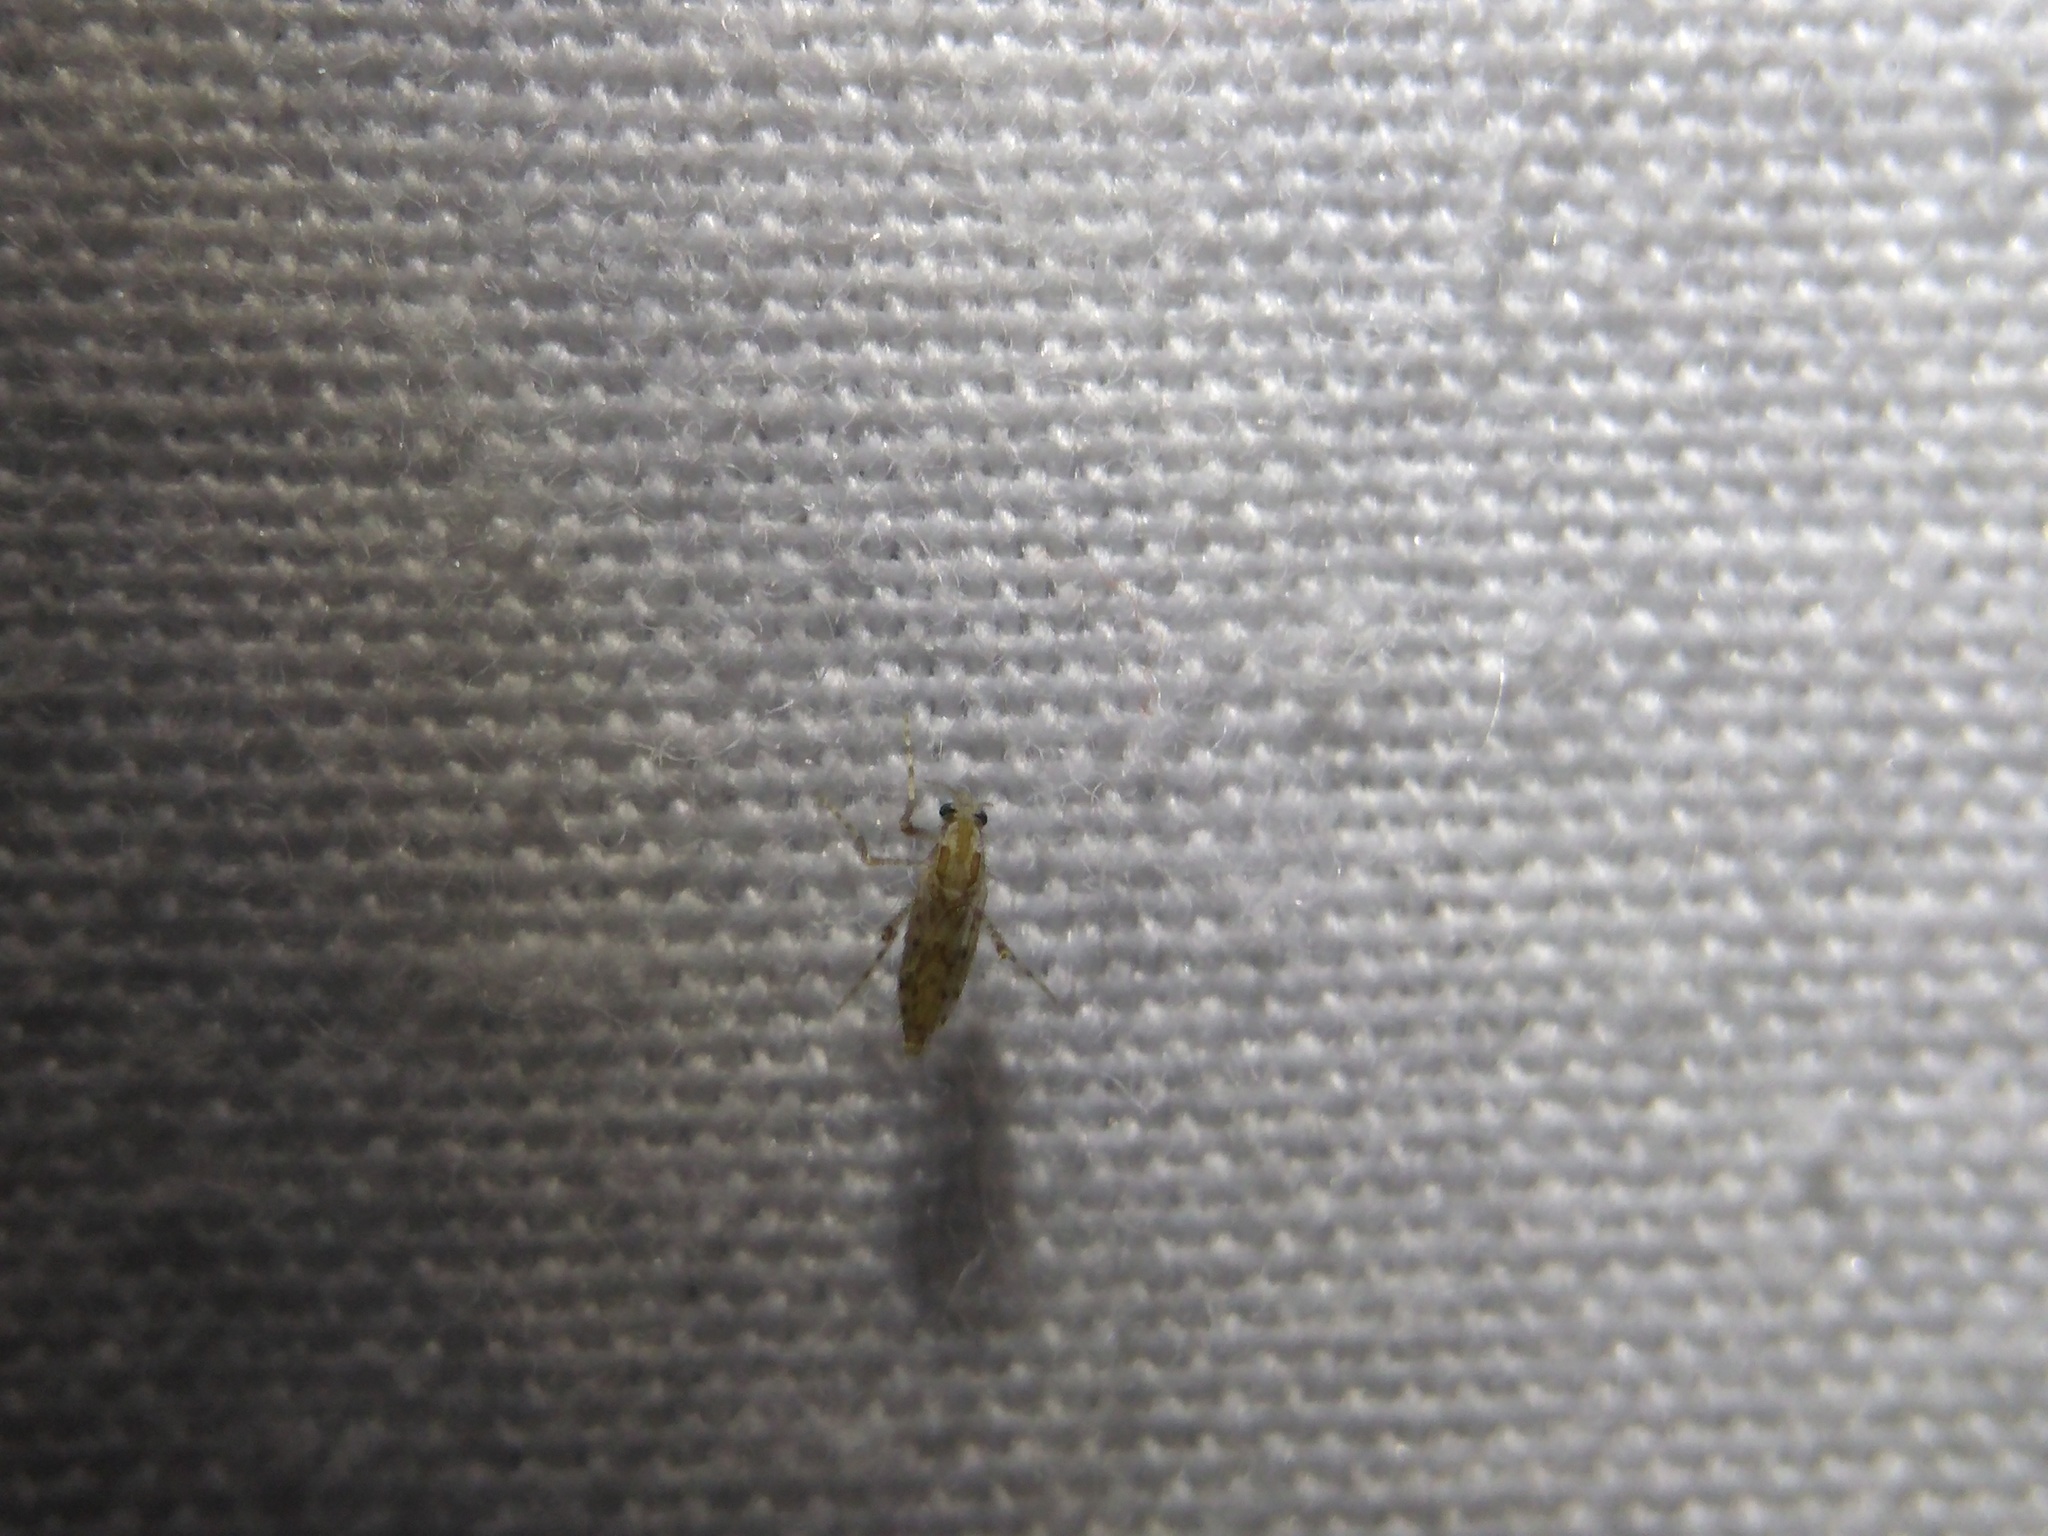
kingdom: Animalia
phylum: Arthropoda
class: Insecta
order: Diptera
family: Chaoboridae
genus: Chaoborus
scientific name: Chaoborus punctipennis
